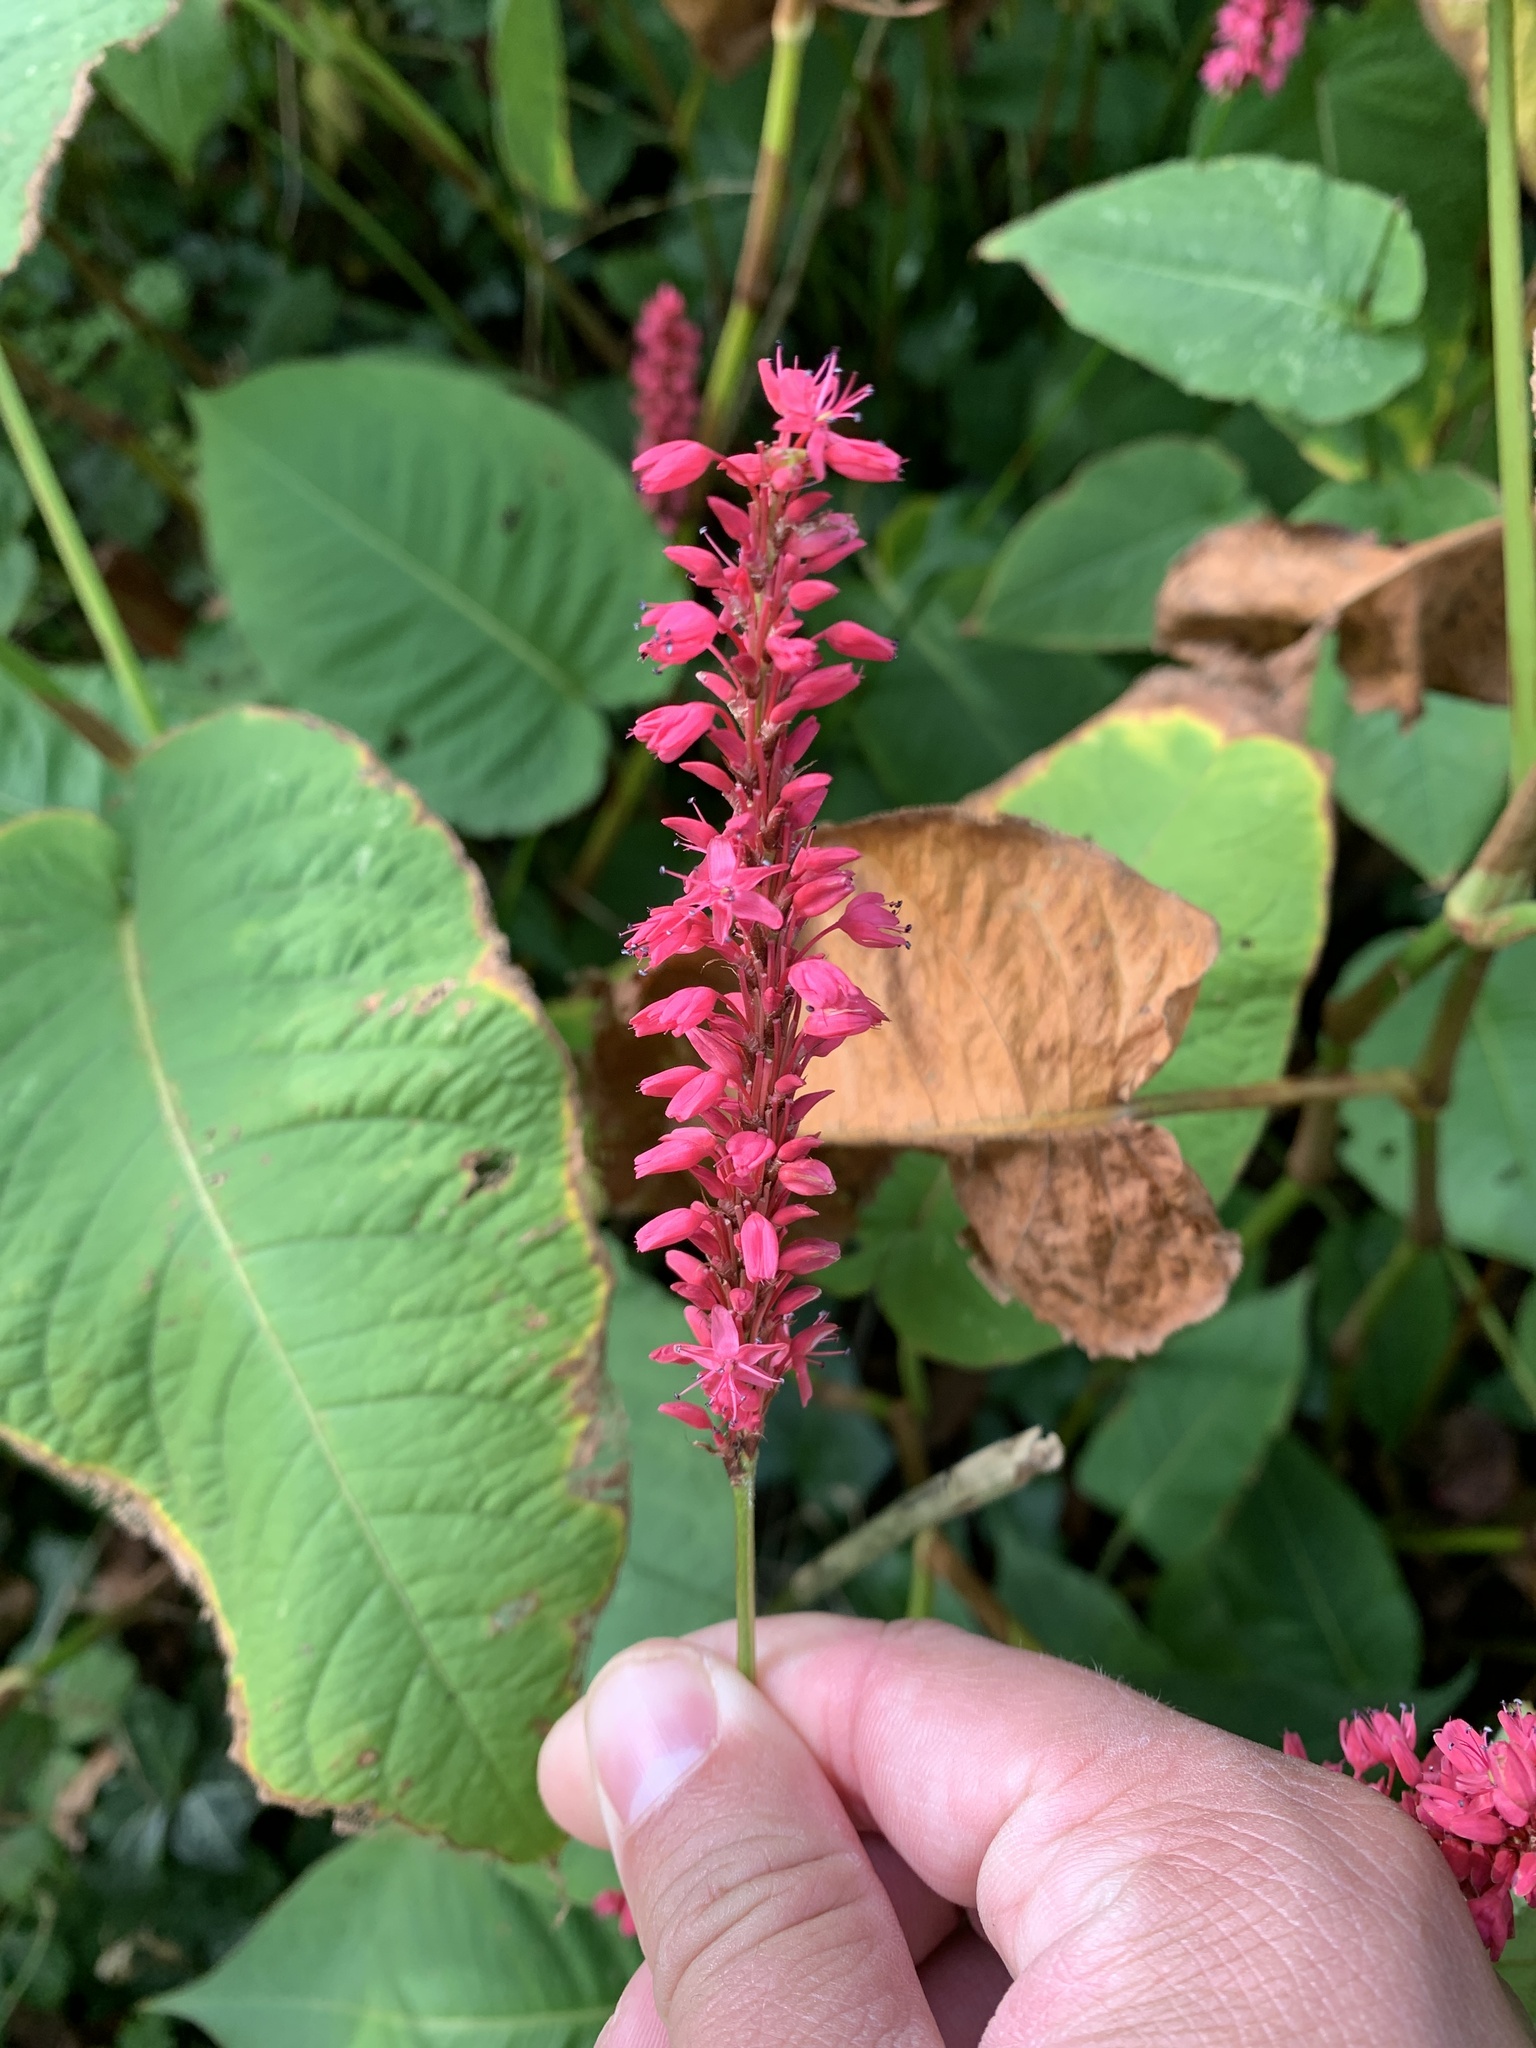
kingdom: Plantae
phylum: Tracheophyta
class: Magnoliopsida
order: Caryophyllales
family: Polygonaceae
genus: Bistorta
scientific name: Bistorta amplexicaulis
